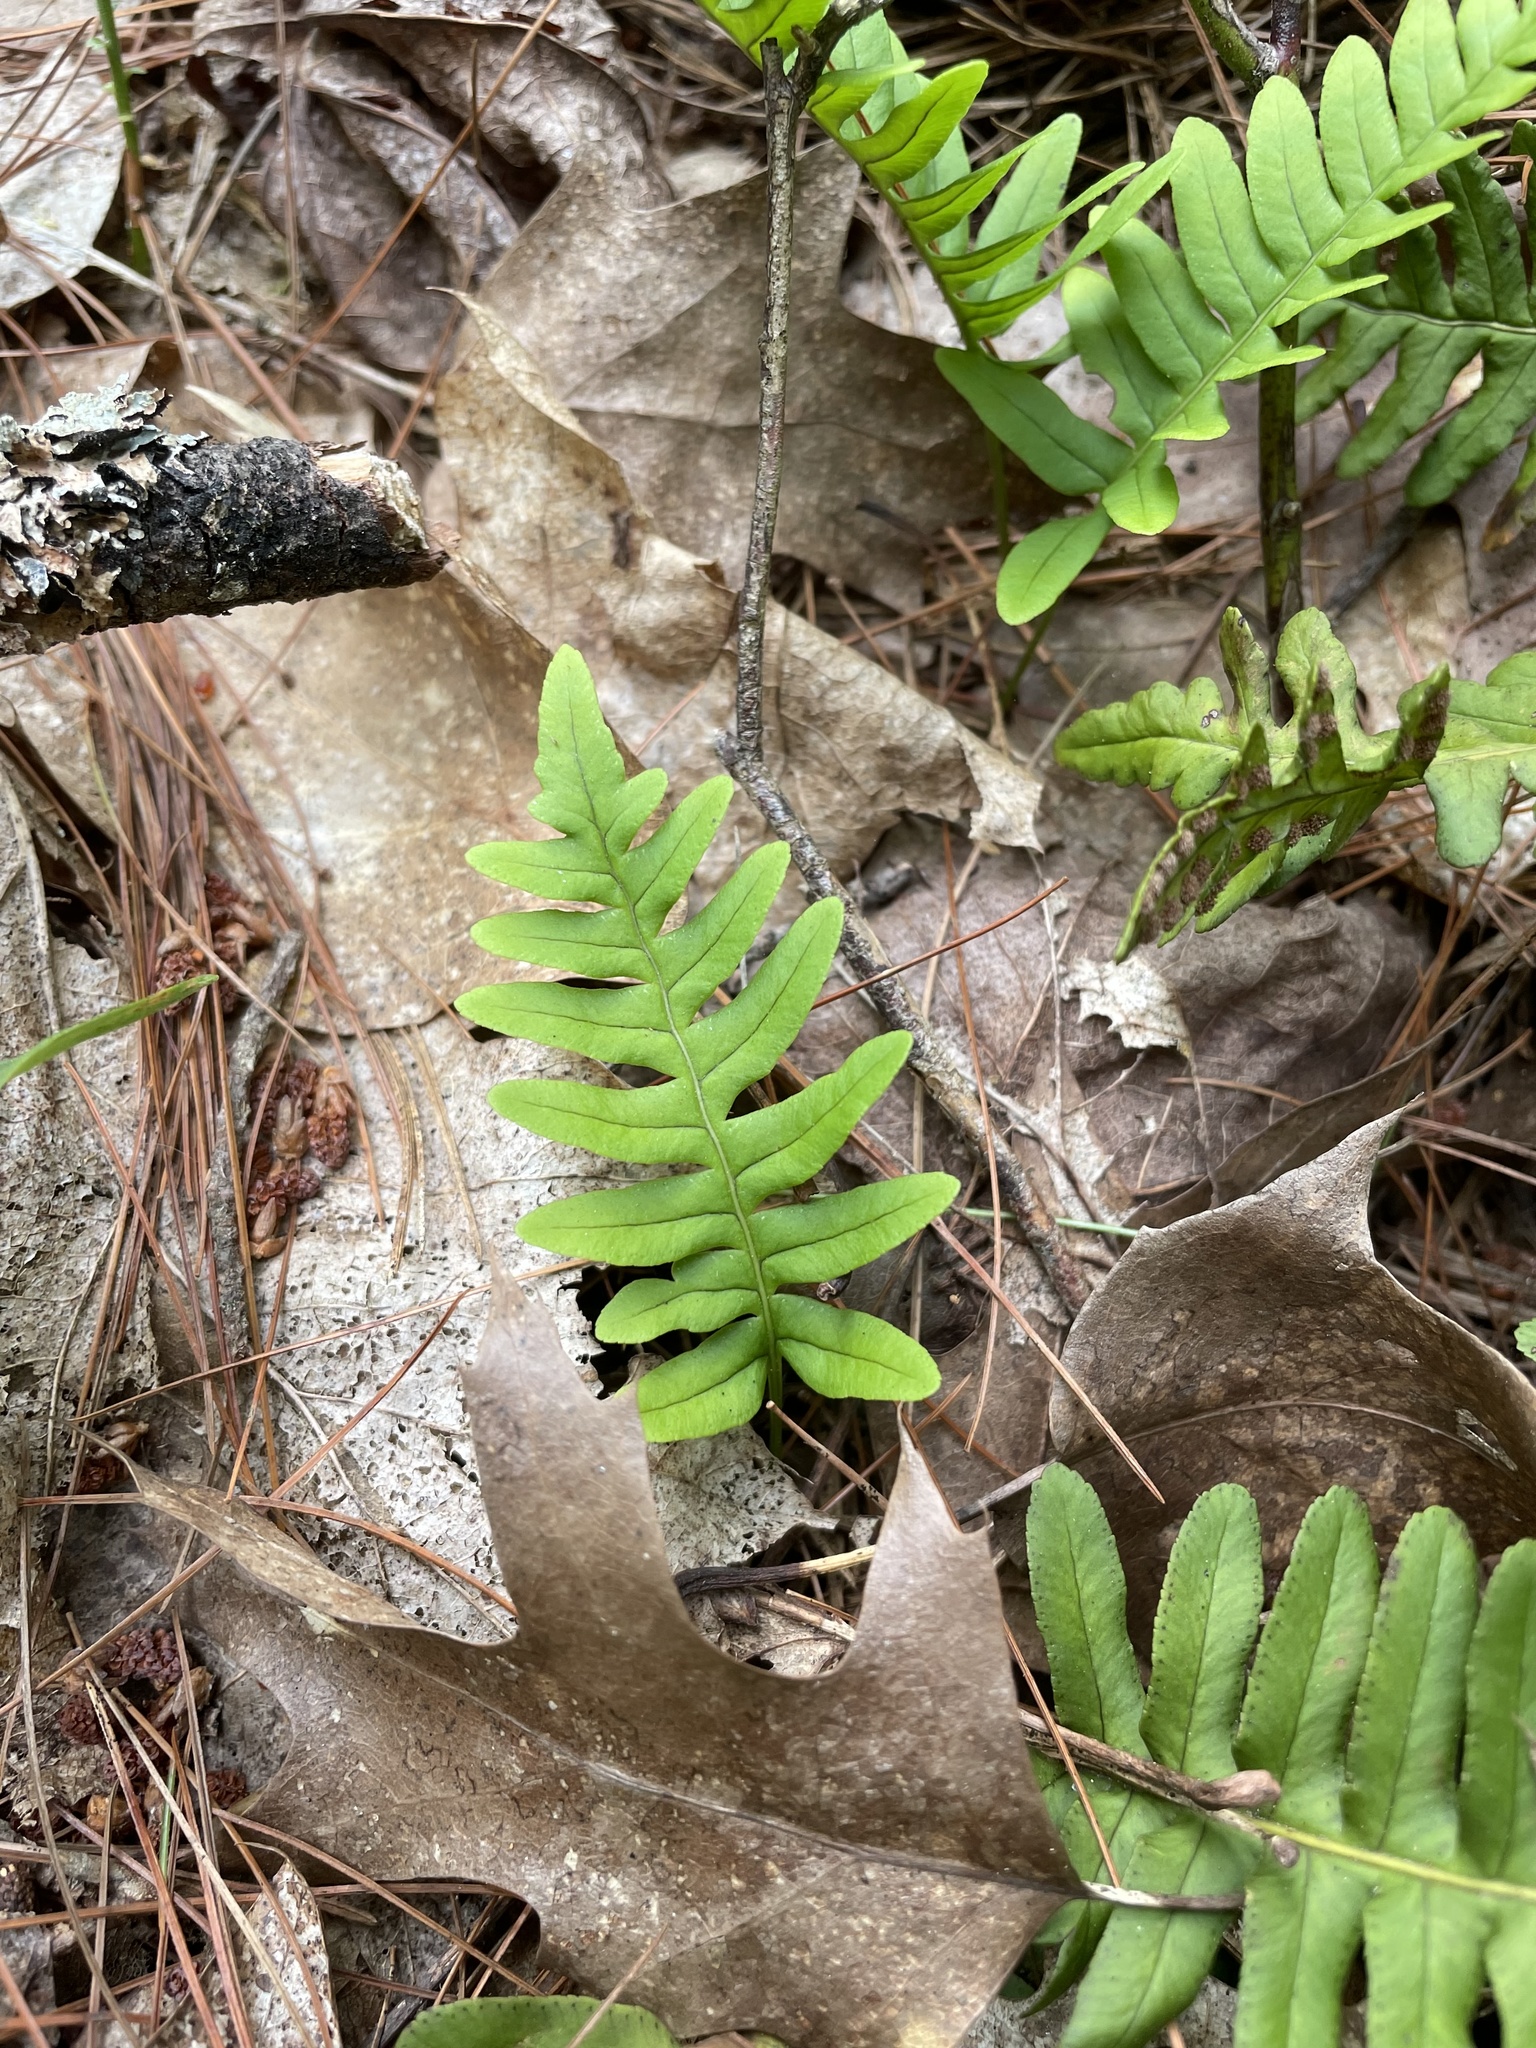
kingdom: Plantae
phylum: Tracheophyta
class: Polypodiopsida
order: Polypodiales
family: Polypodiaceae
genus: Polypodium
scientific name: Polypodium virginianum
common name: American wall fern
